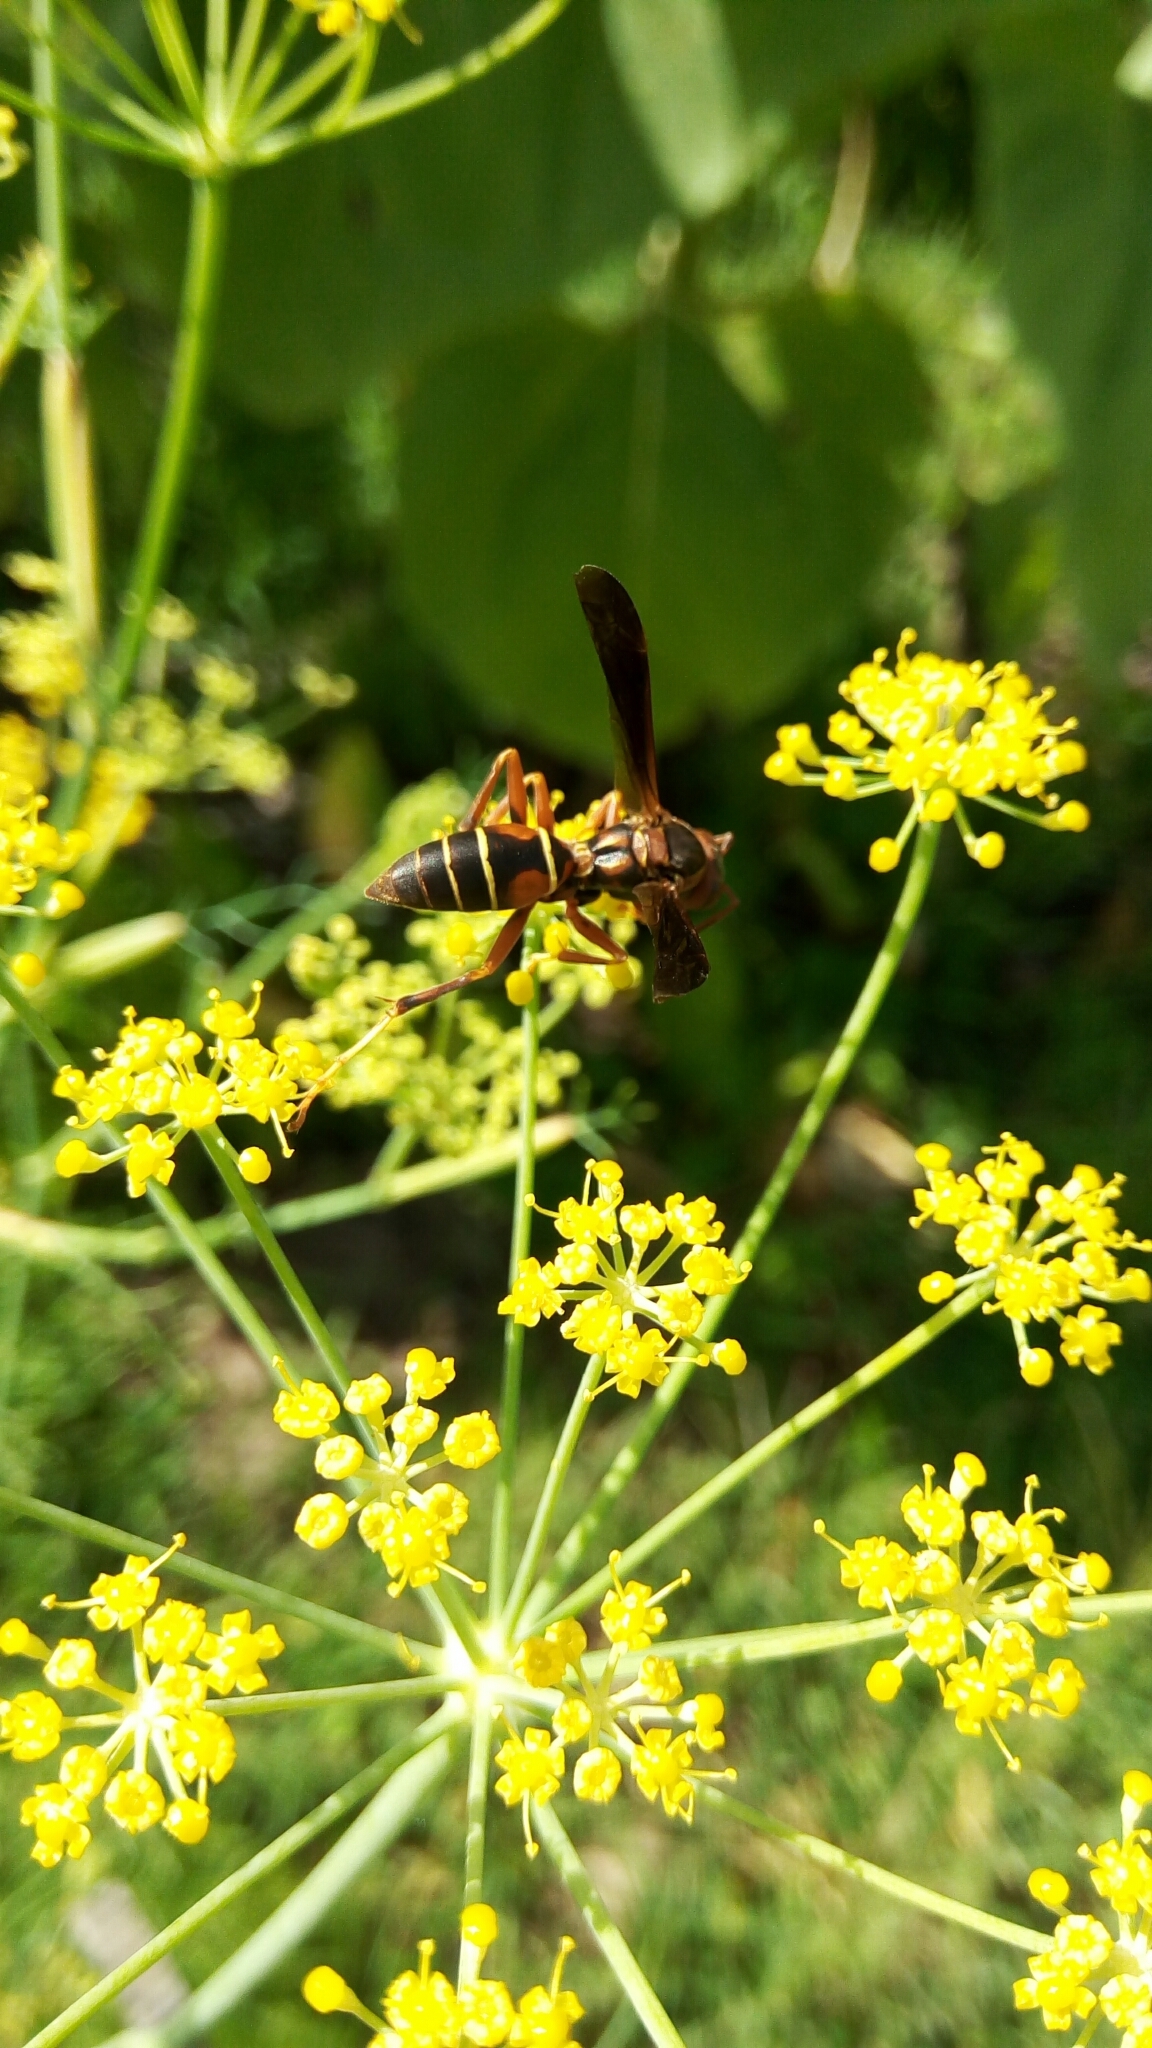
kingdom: Animalia
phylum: Arthropoda
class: Insecta
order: Hymenoptera
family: Eumenidae
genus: Polistes
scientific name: Polistes fuscatus
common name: Dark paper wasp
